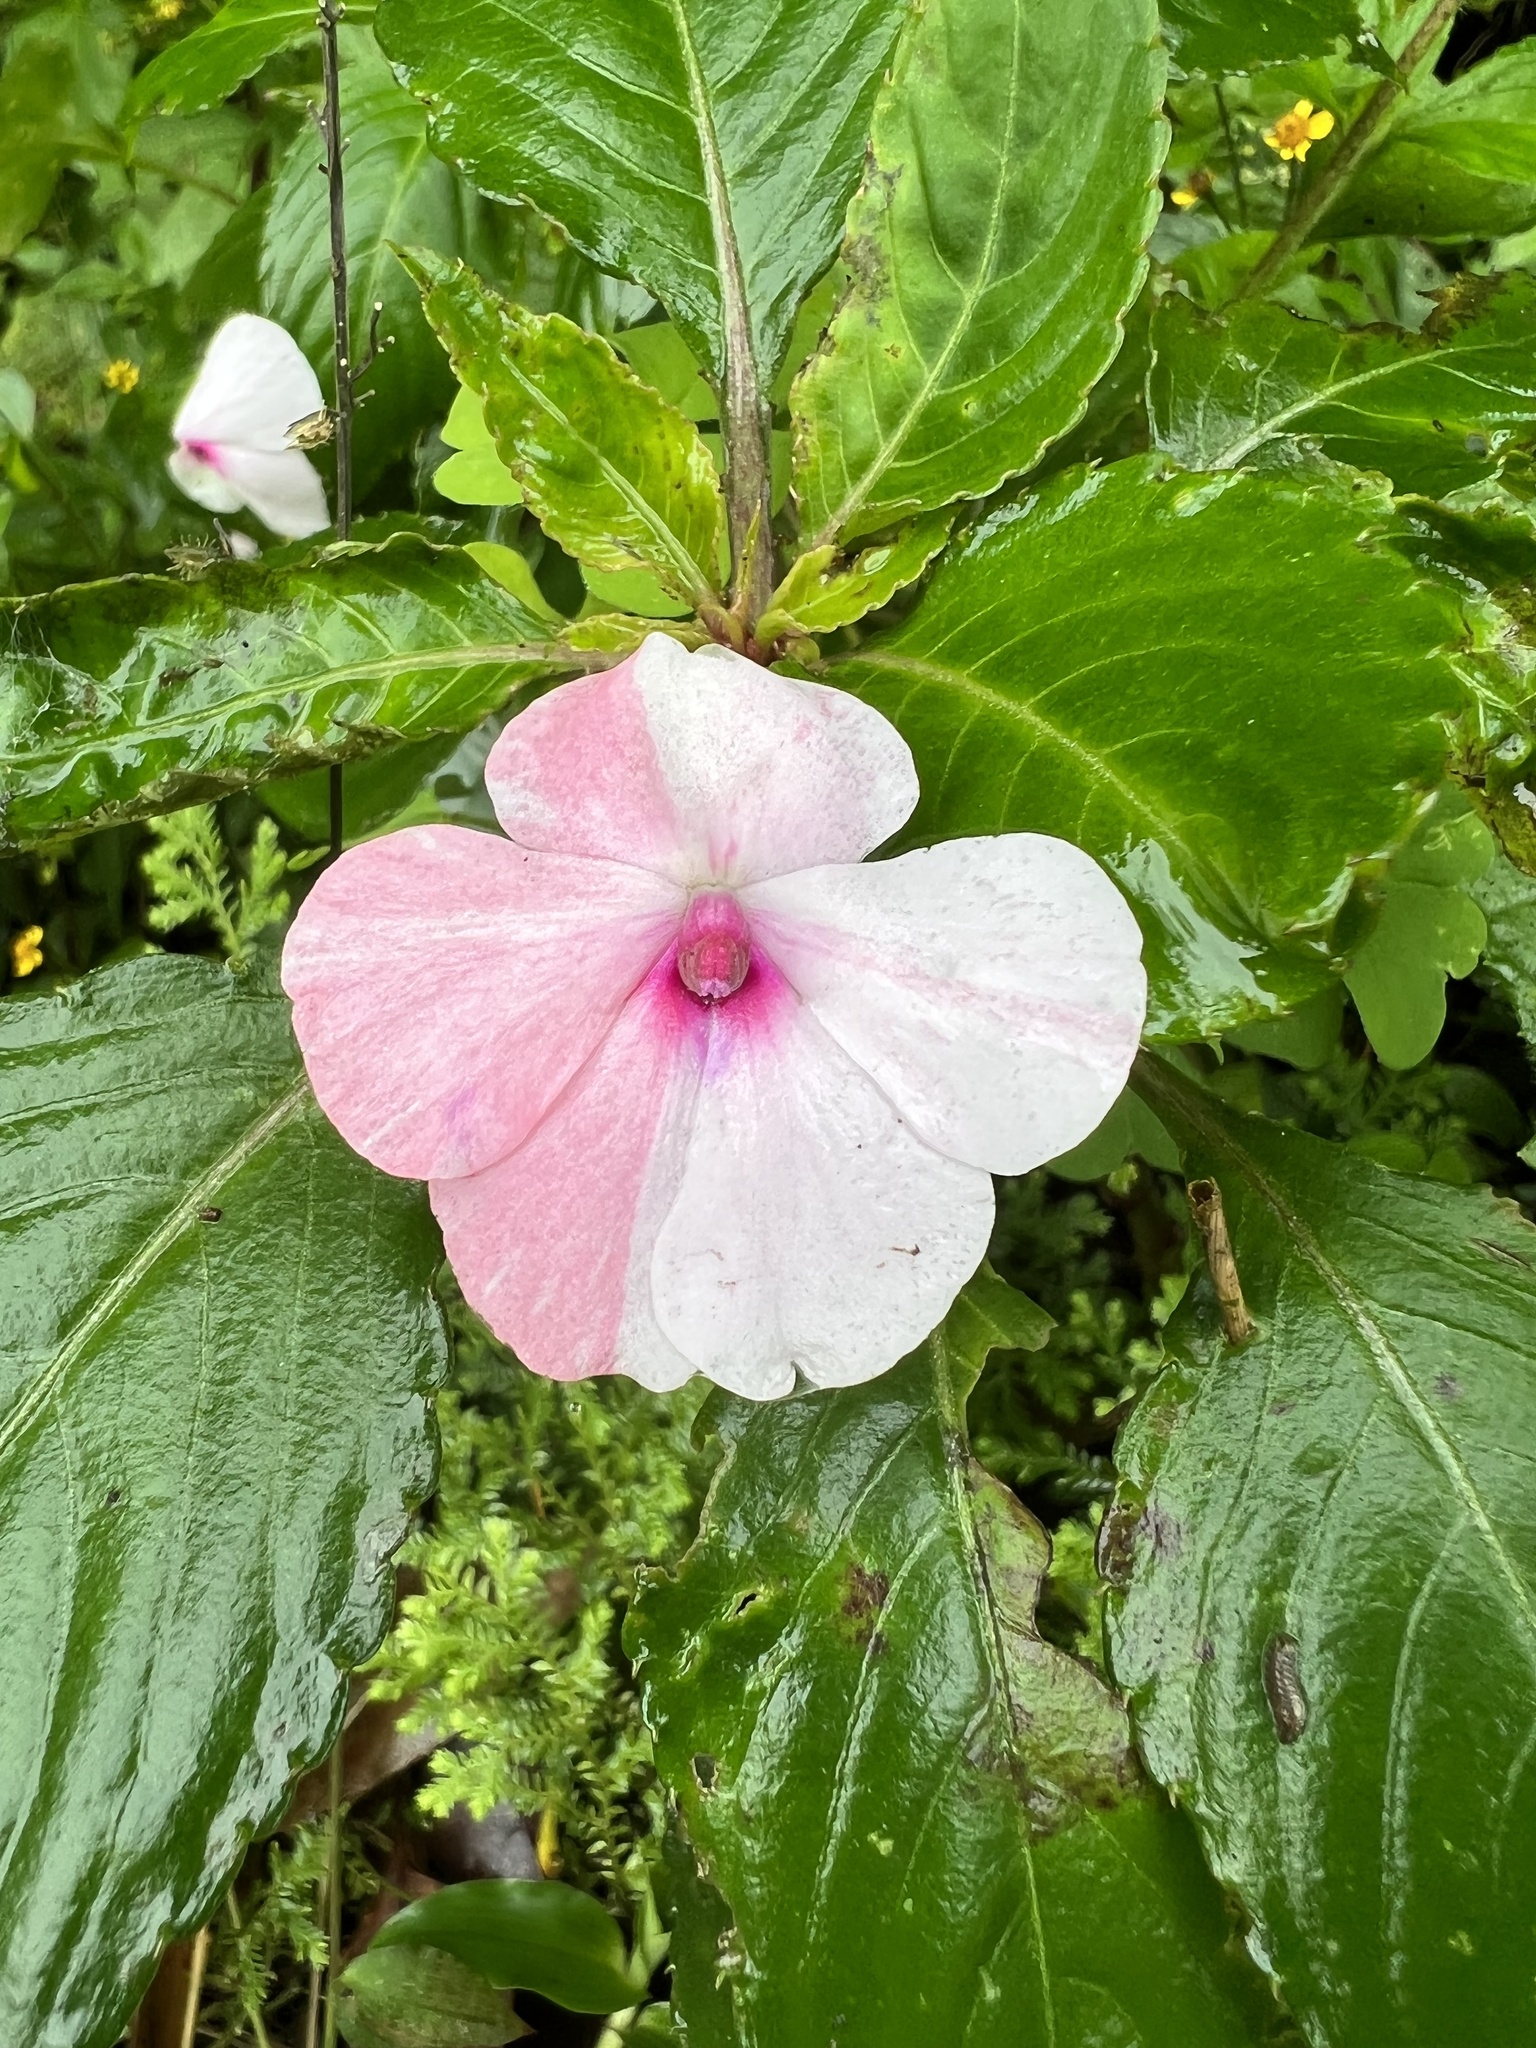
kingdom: Plantae
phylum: Tracheophyta
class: Magnoliopsida
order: Ericales
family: Balsaminaceae
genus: Impatiens
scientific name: Impatiens walleriana
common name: Buzzy lizzy
